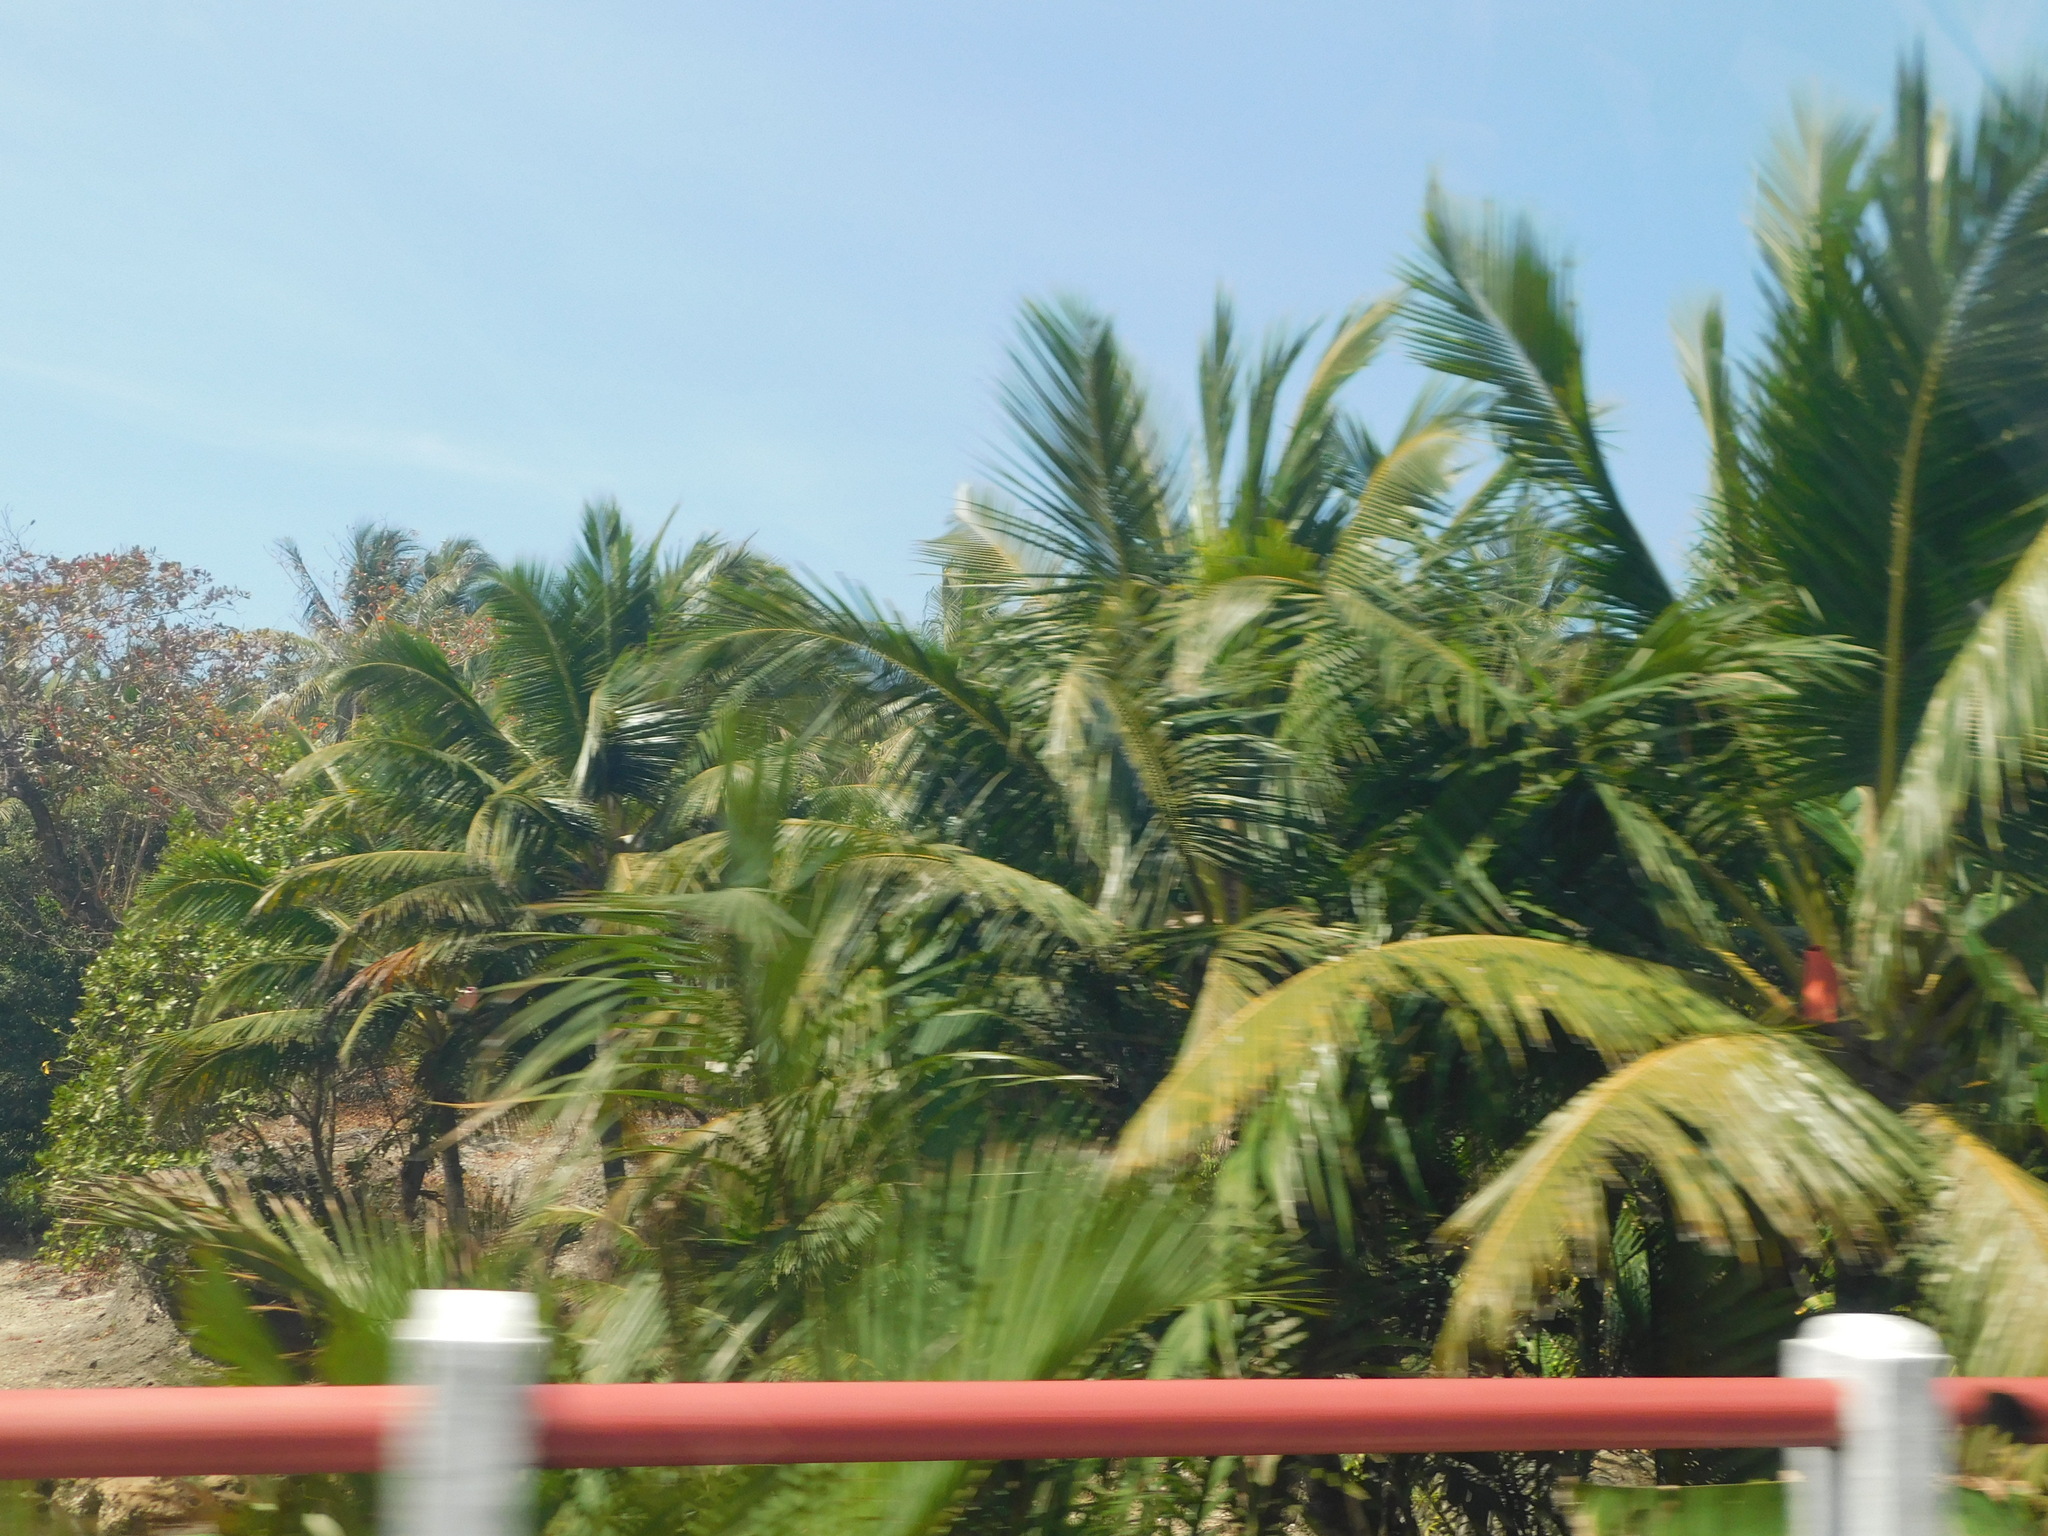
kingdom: Plantae
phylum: Tracheophyta
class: Liliopsida
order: Arecales
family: Arecaceae
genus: Cocos
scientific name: Cocos nucifera
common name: Coconut palm
